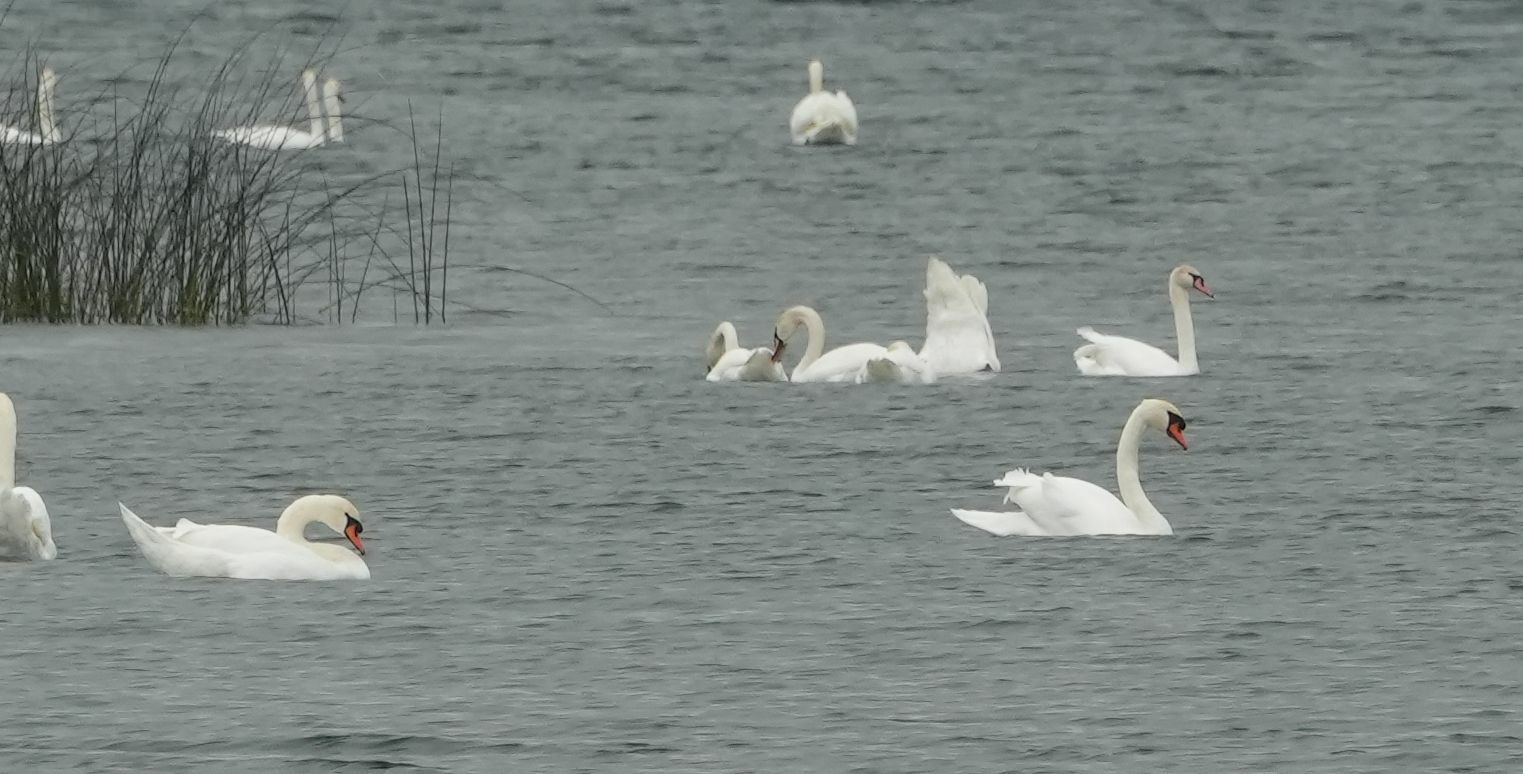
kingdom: Animalia
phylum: Chordata
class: Aves
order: Anseriformes
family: Anatidae
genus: Cygnus
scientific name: Cygnus olor
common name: Mute swan
